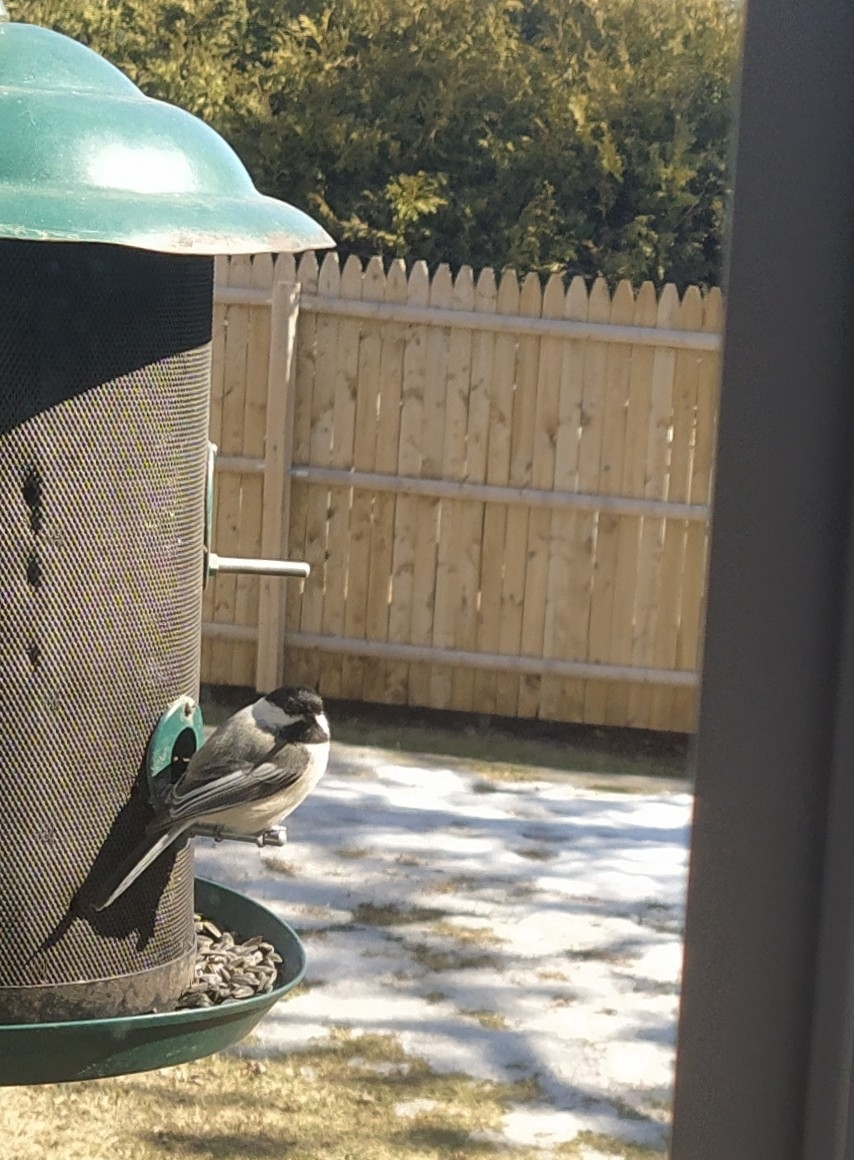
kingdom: Animalia
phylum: Chordata
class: Aves
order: Passeriformes
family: Paridae
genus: Poecile
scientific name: Poecile atricapillus
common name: Black-capped chickadee
